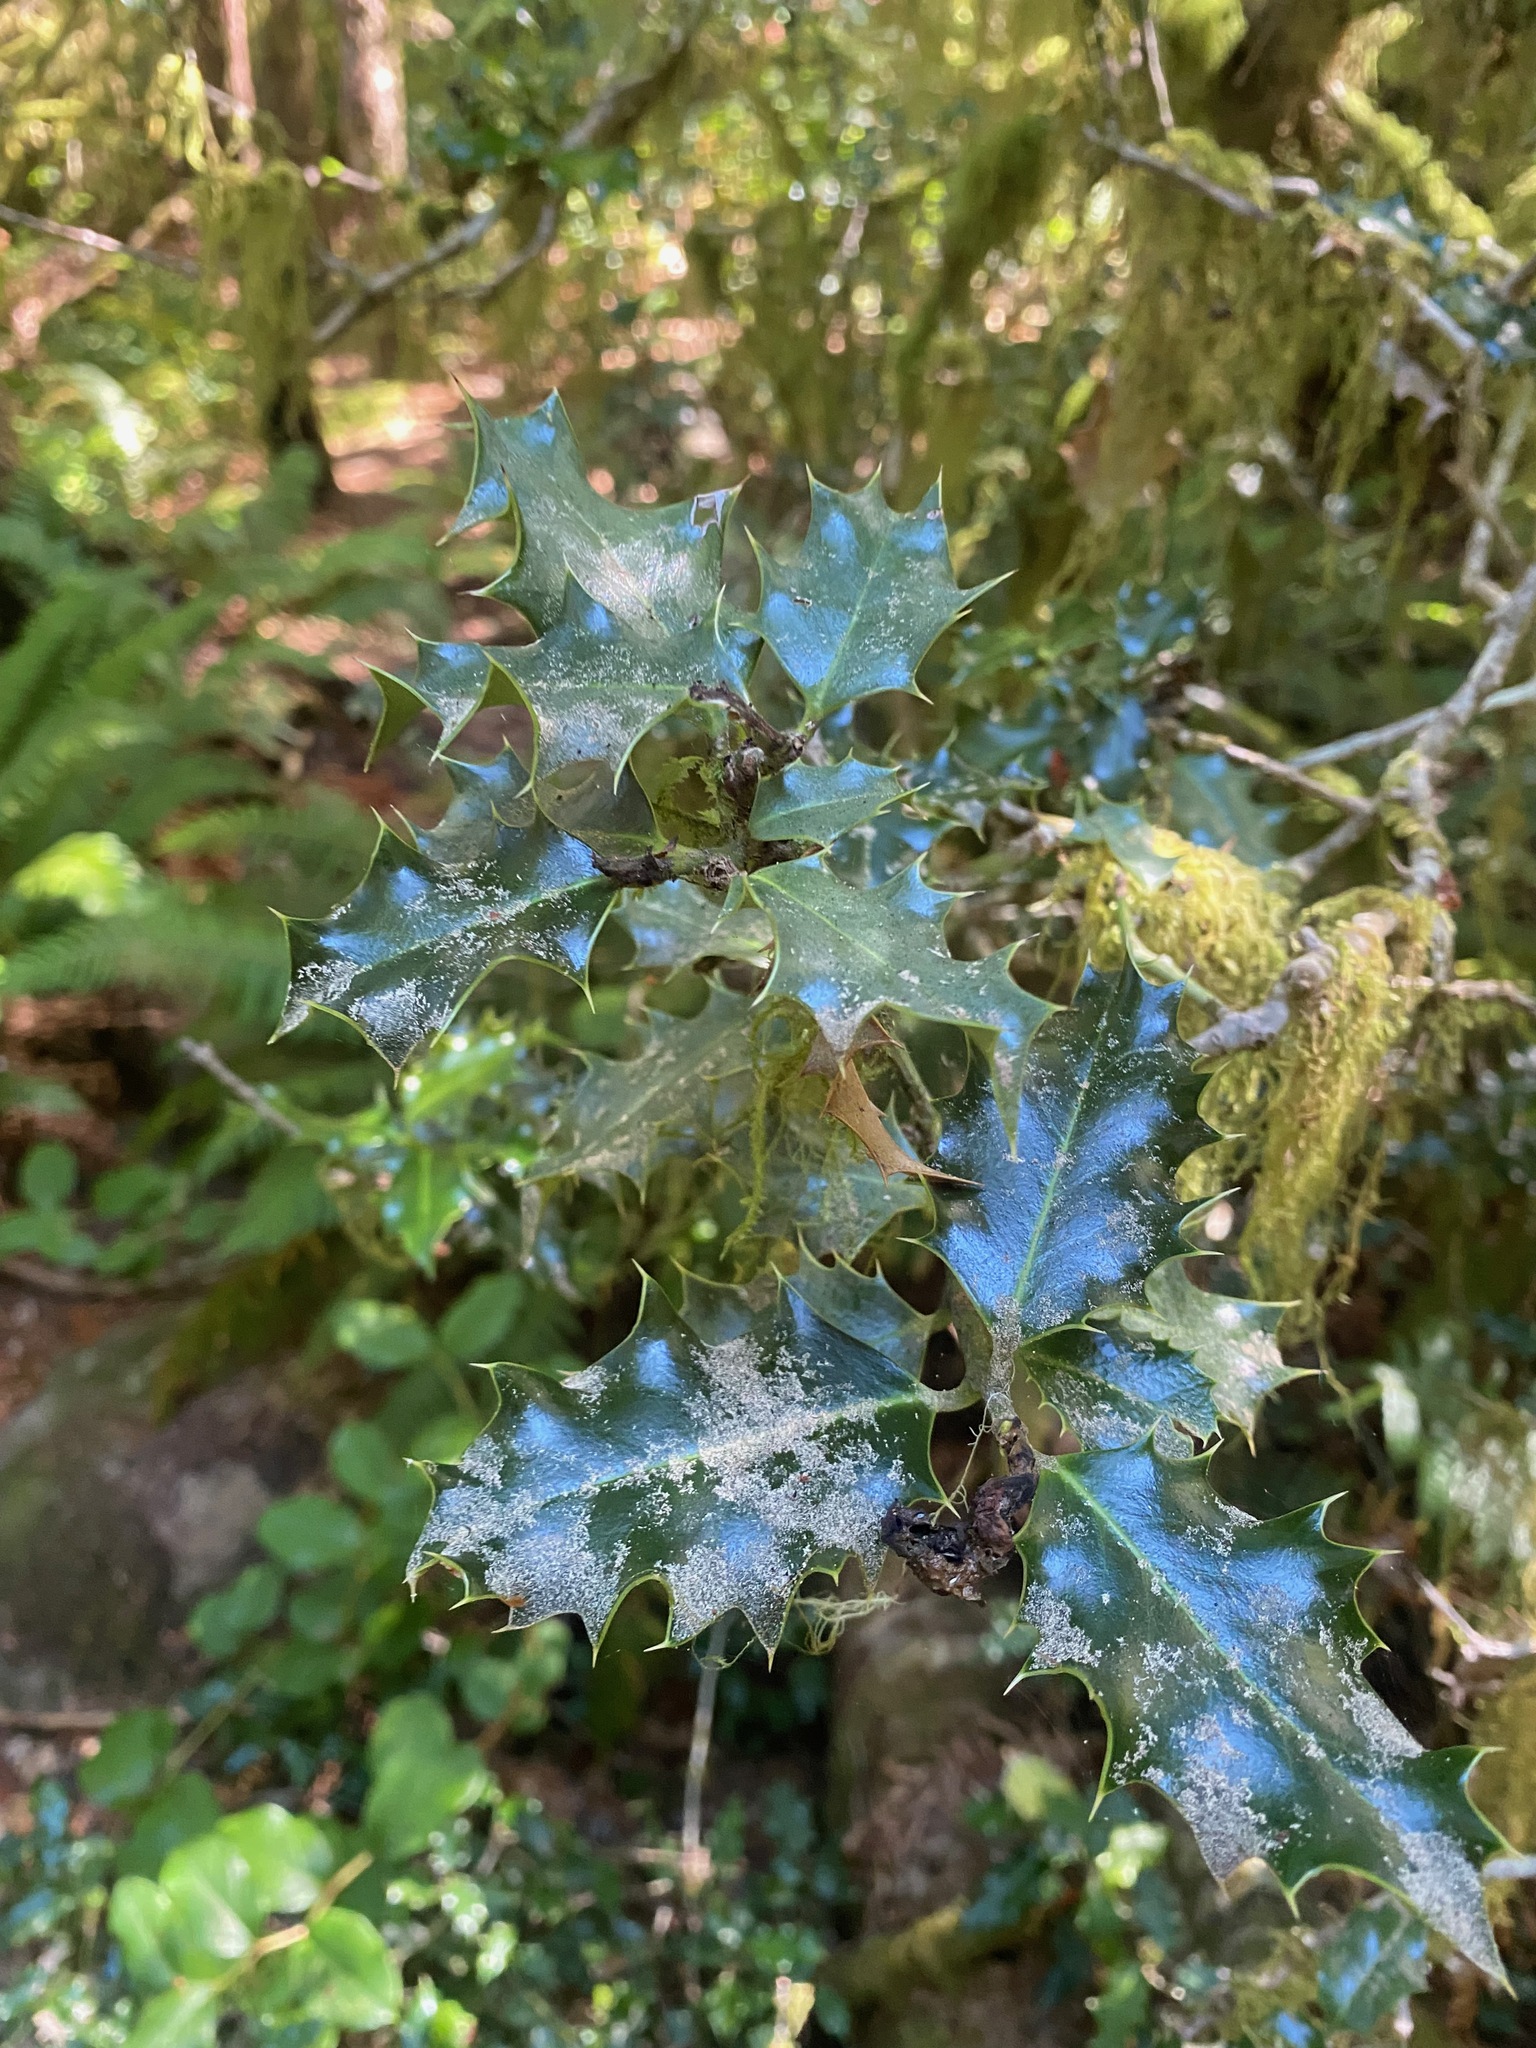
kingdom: Plantae
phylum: Tracheophyta
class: Magnoliopsida
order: Aquifoliales
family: Aquifoliaceae
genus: Ilex
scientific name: Ilex aquifolium
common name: English holly
